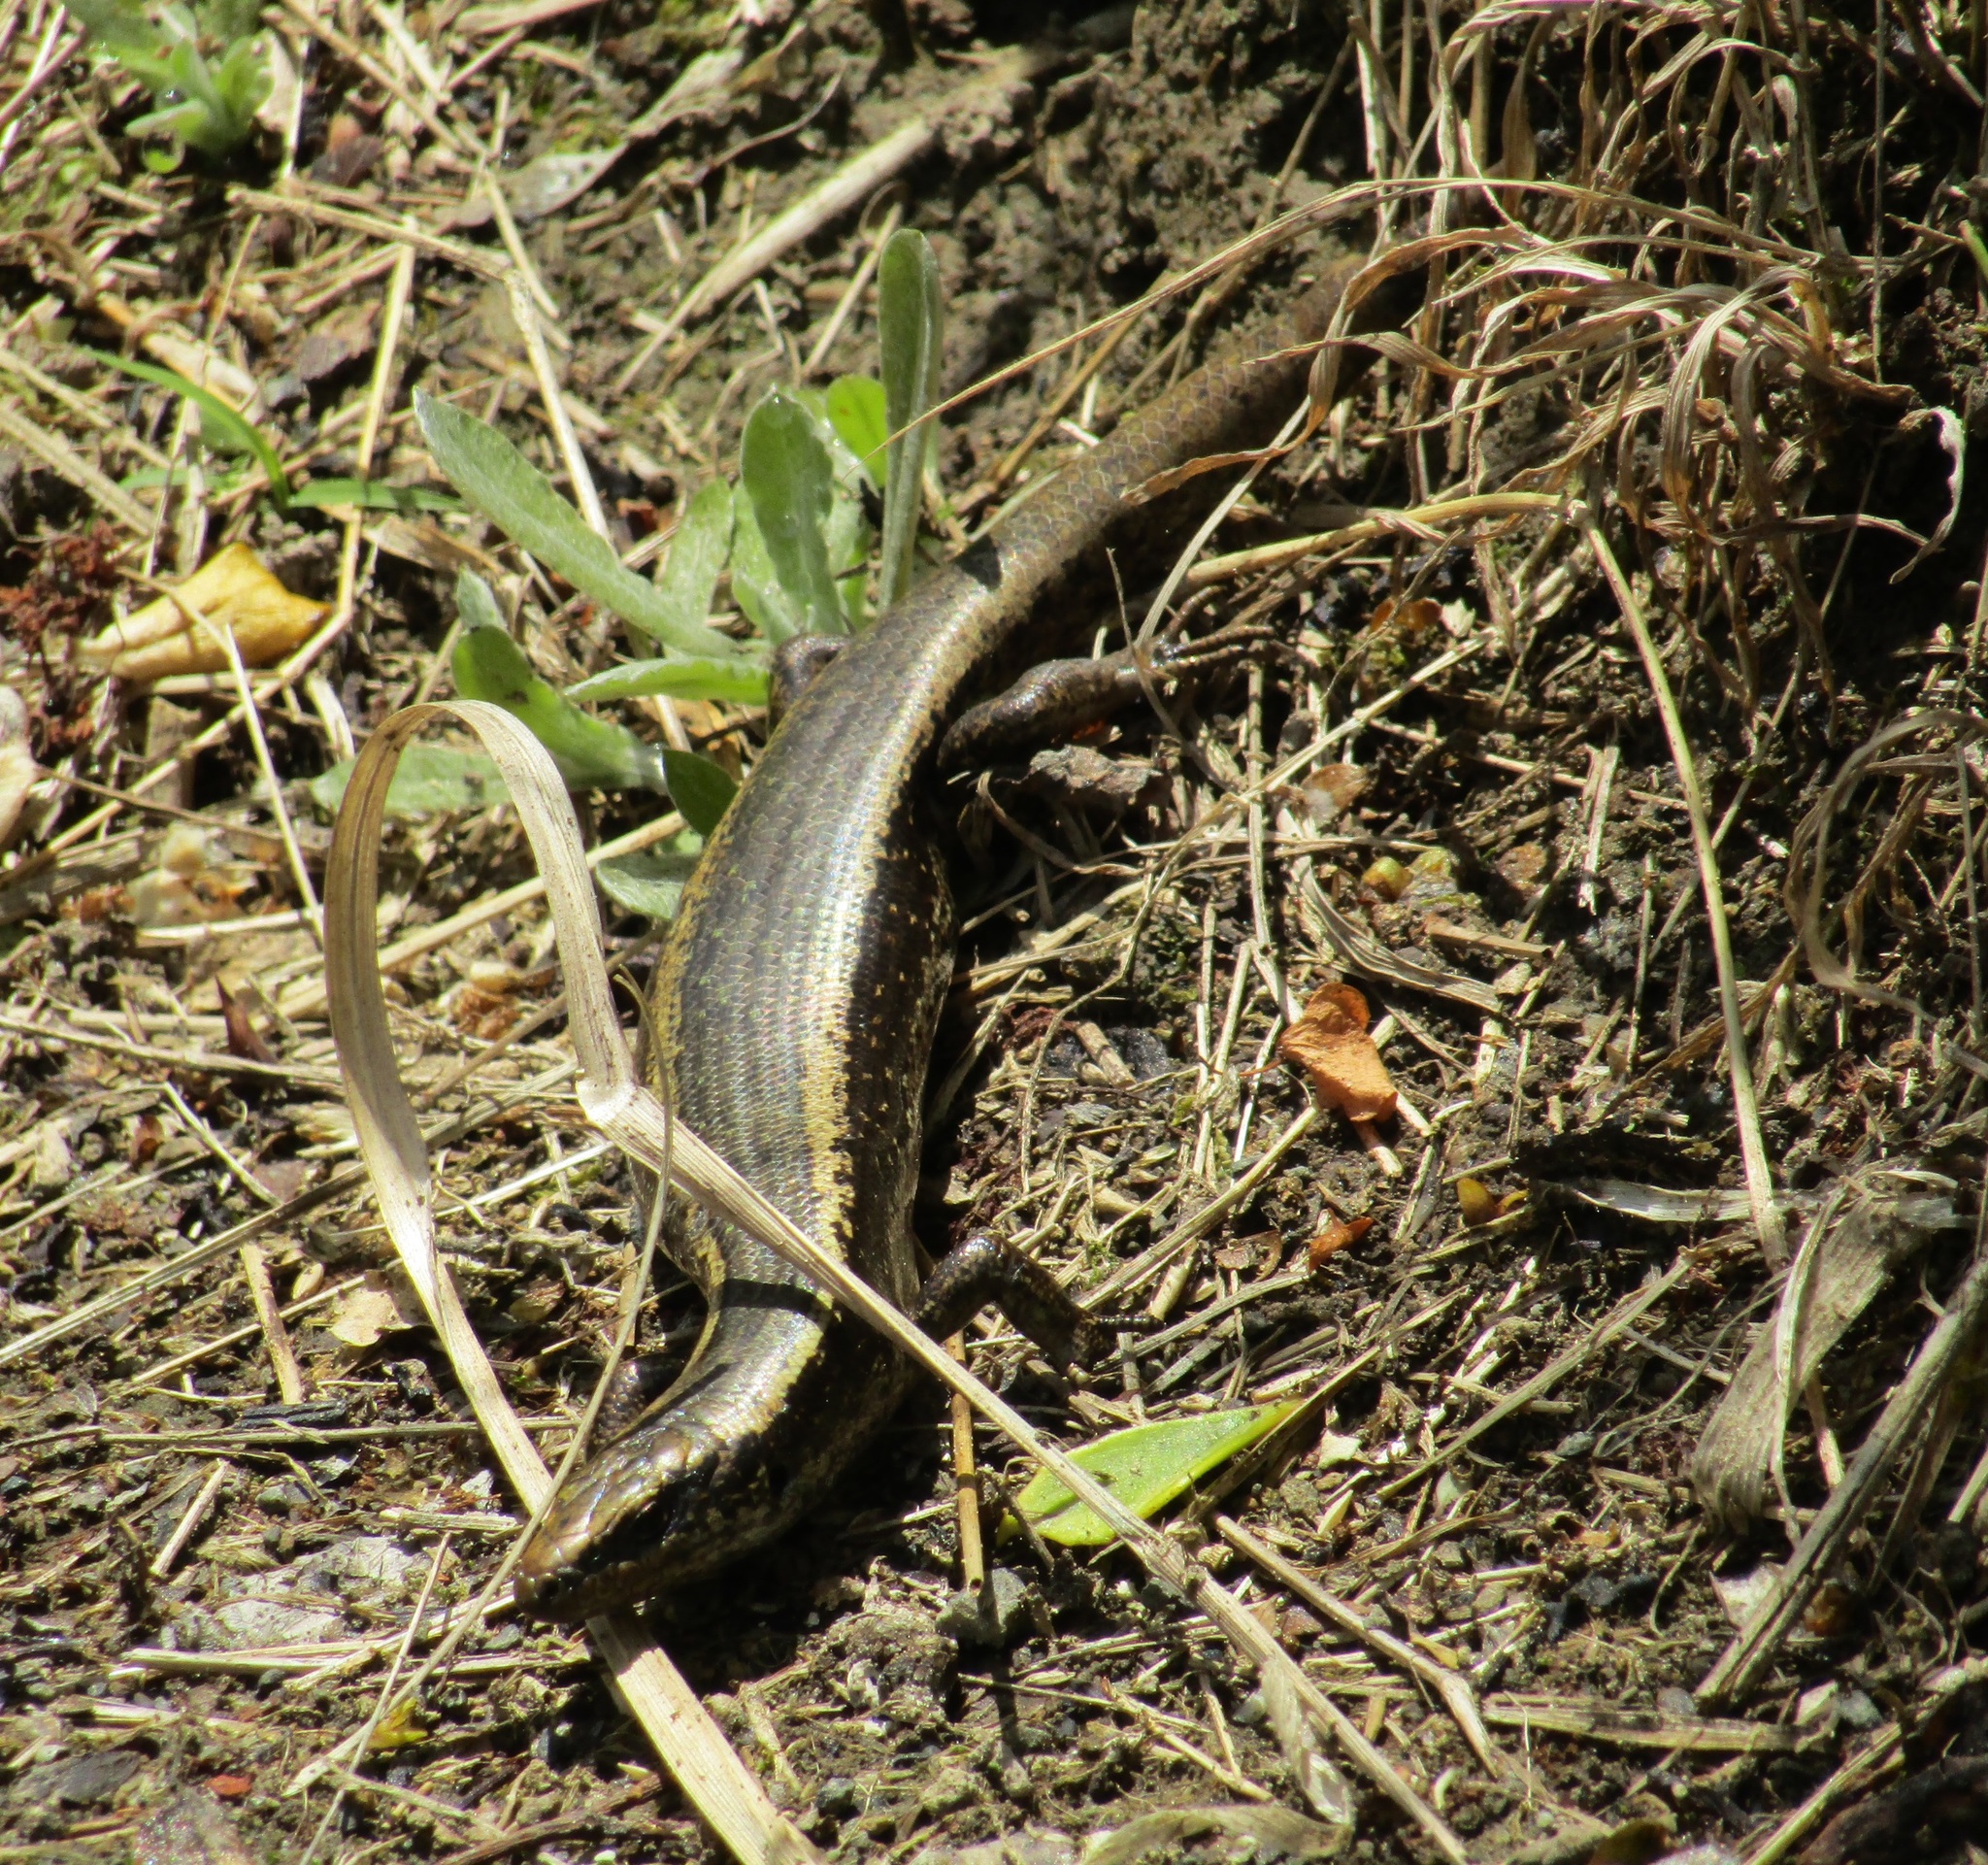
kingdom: Animalia
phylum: Chordata
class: Squamata
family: Scincidae
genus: Oligosoma
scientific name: Oligosoma kokowai
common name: Northern spotted skink
